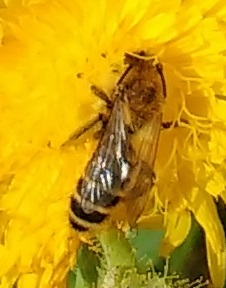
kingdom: Animalia
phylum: Arthropoda
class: Insecta
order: Hymenoptera
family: Melittidae
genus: Dasypoda
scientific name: Dasypoda hirtipes
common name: Pantaloon bee
